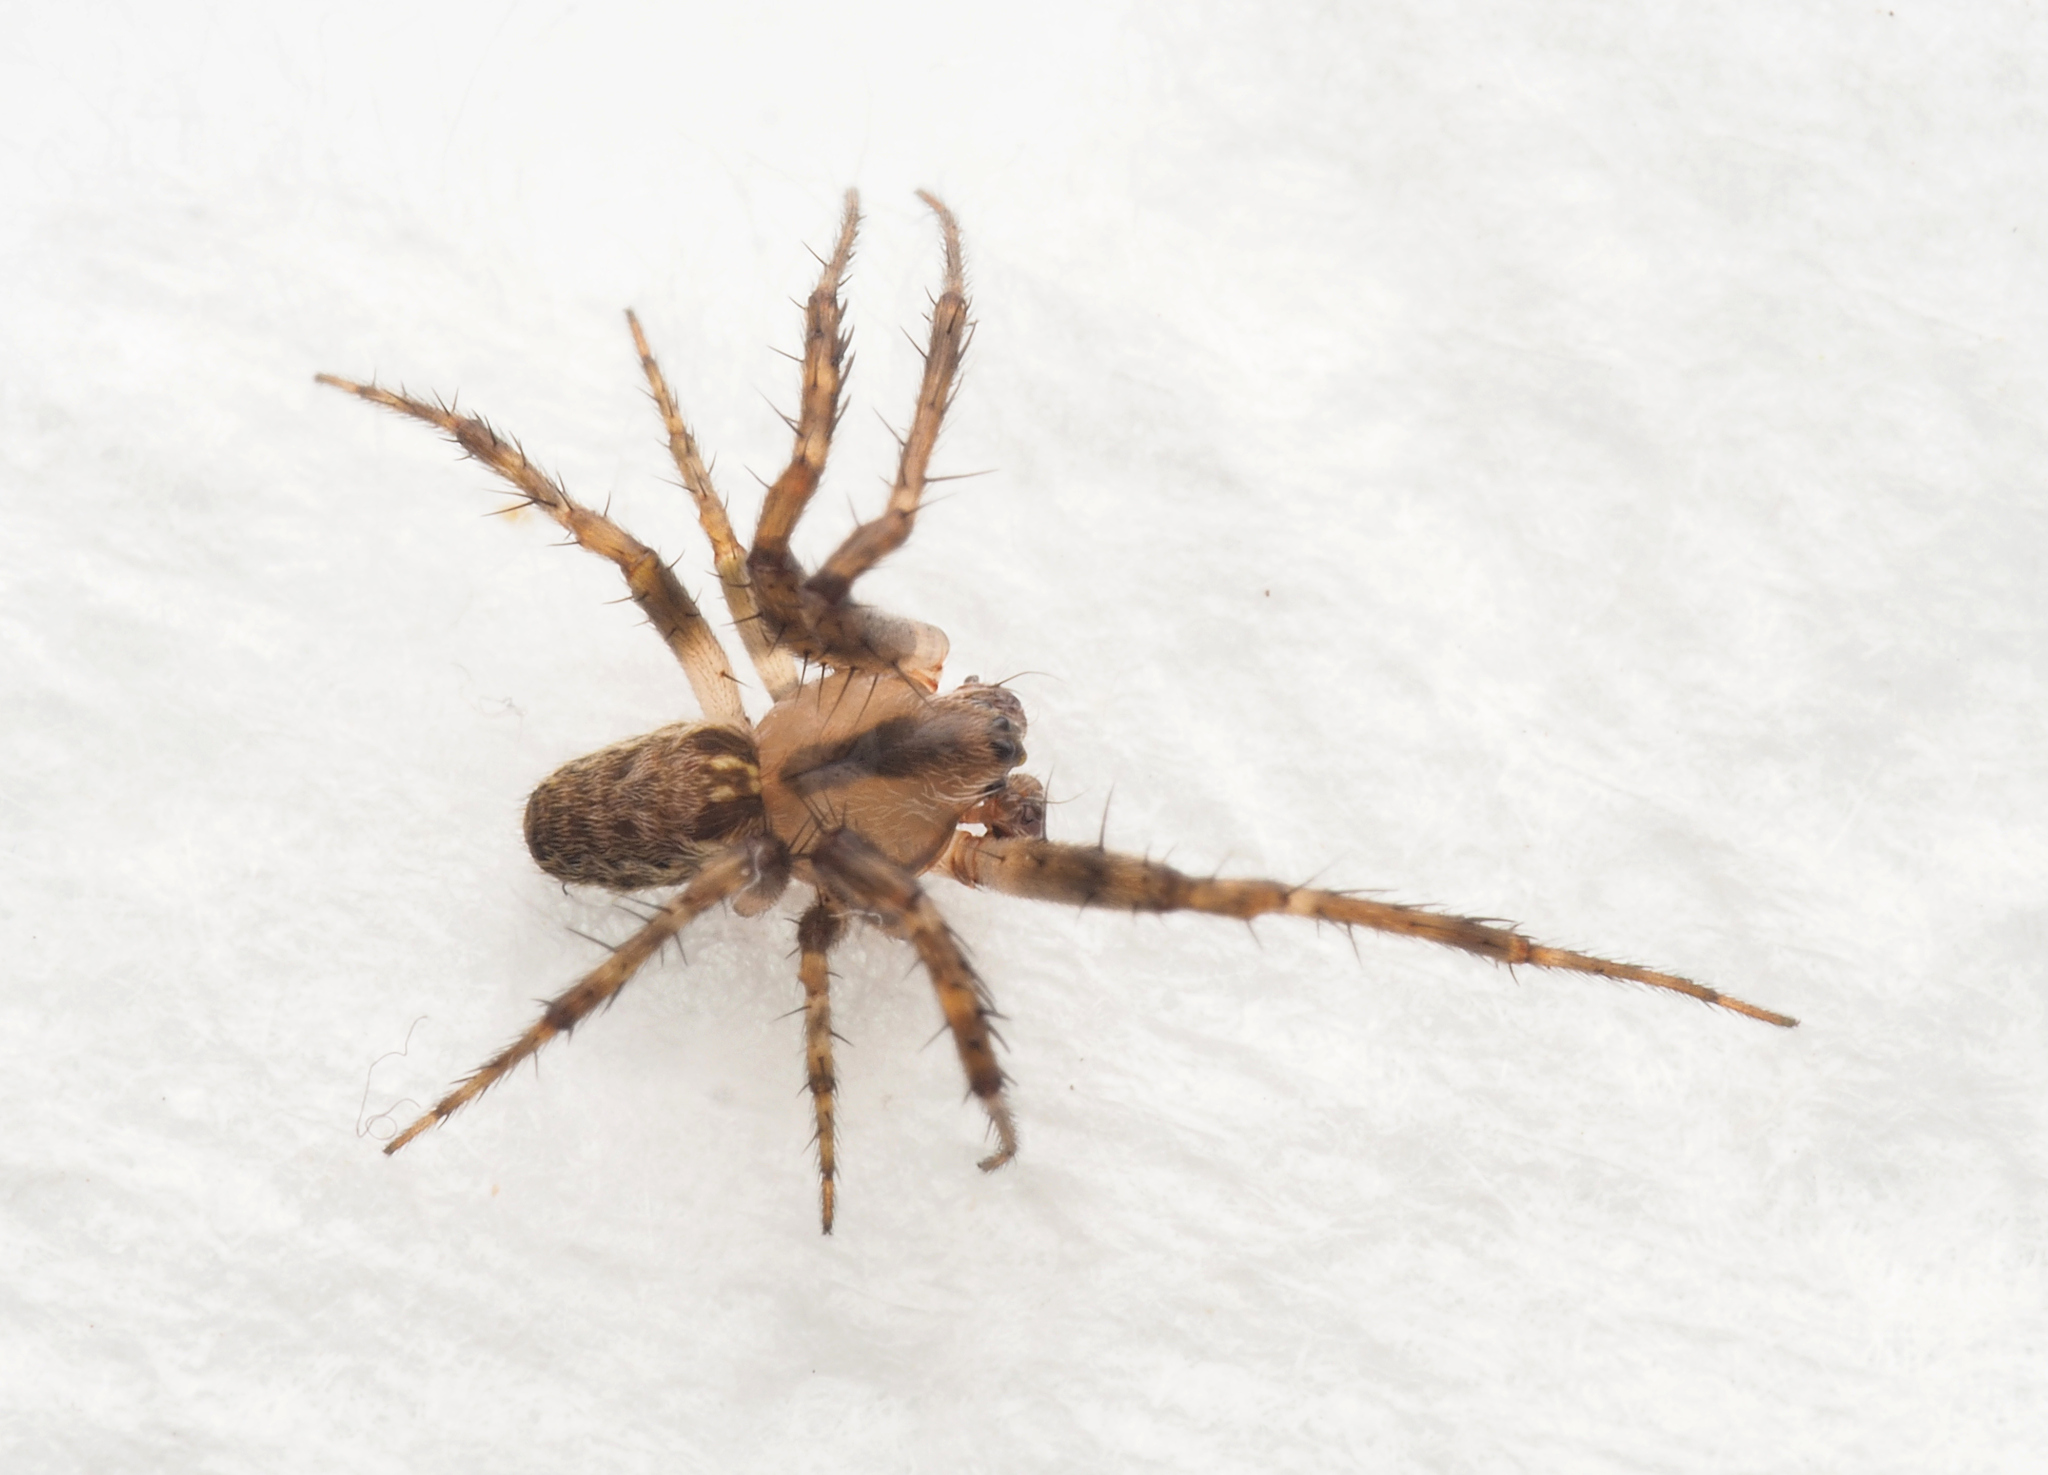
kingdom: Animalia
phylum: Arthropoda
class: Arachnida
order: Araneae
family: Araneidae
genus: Plebs
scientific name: Plebs eburnus
